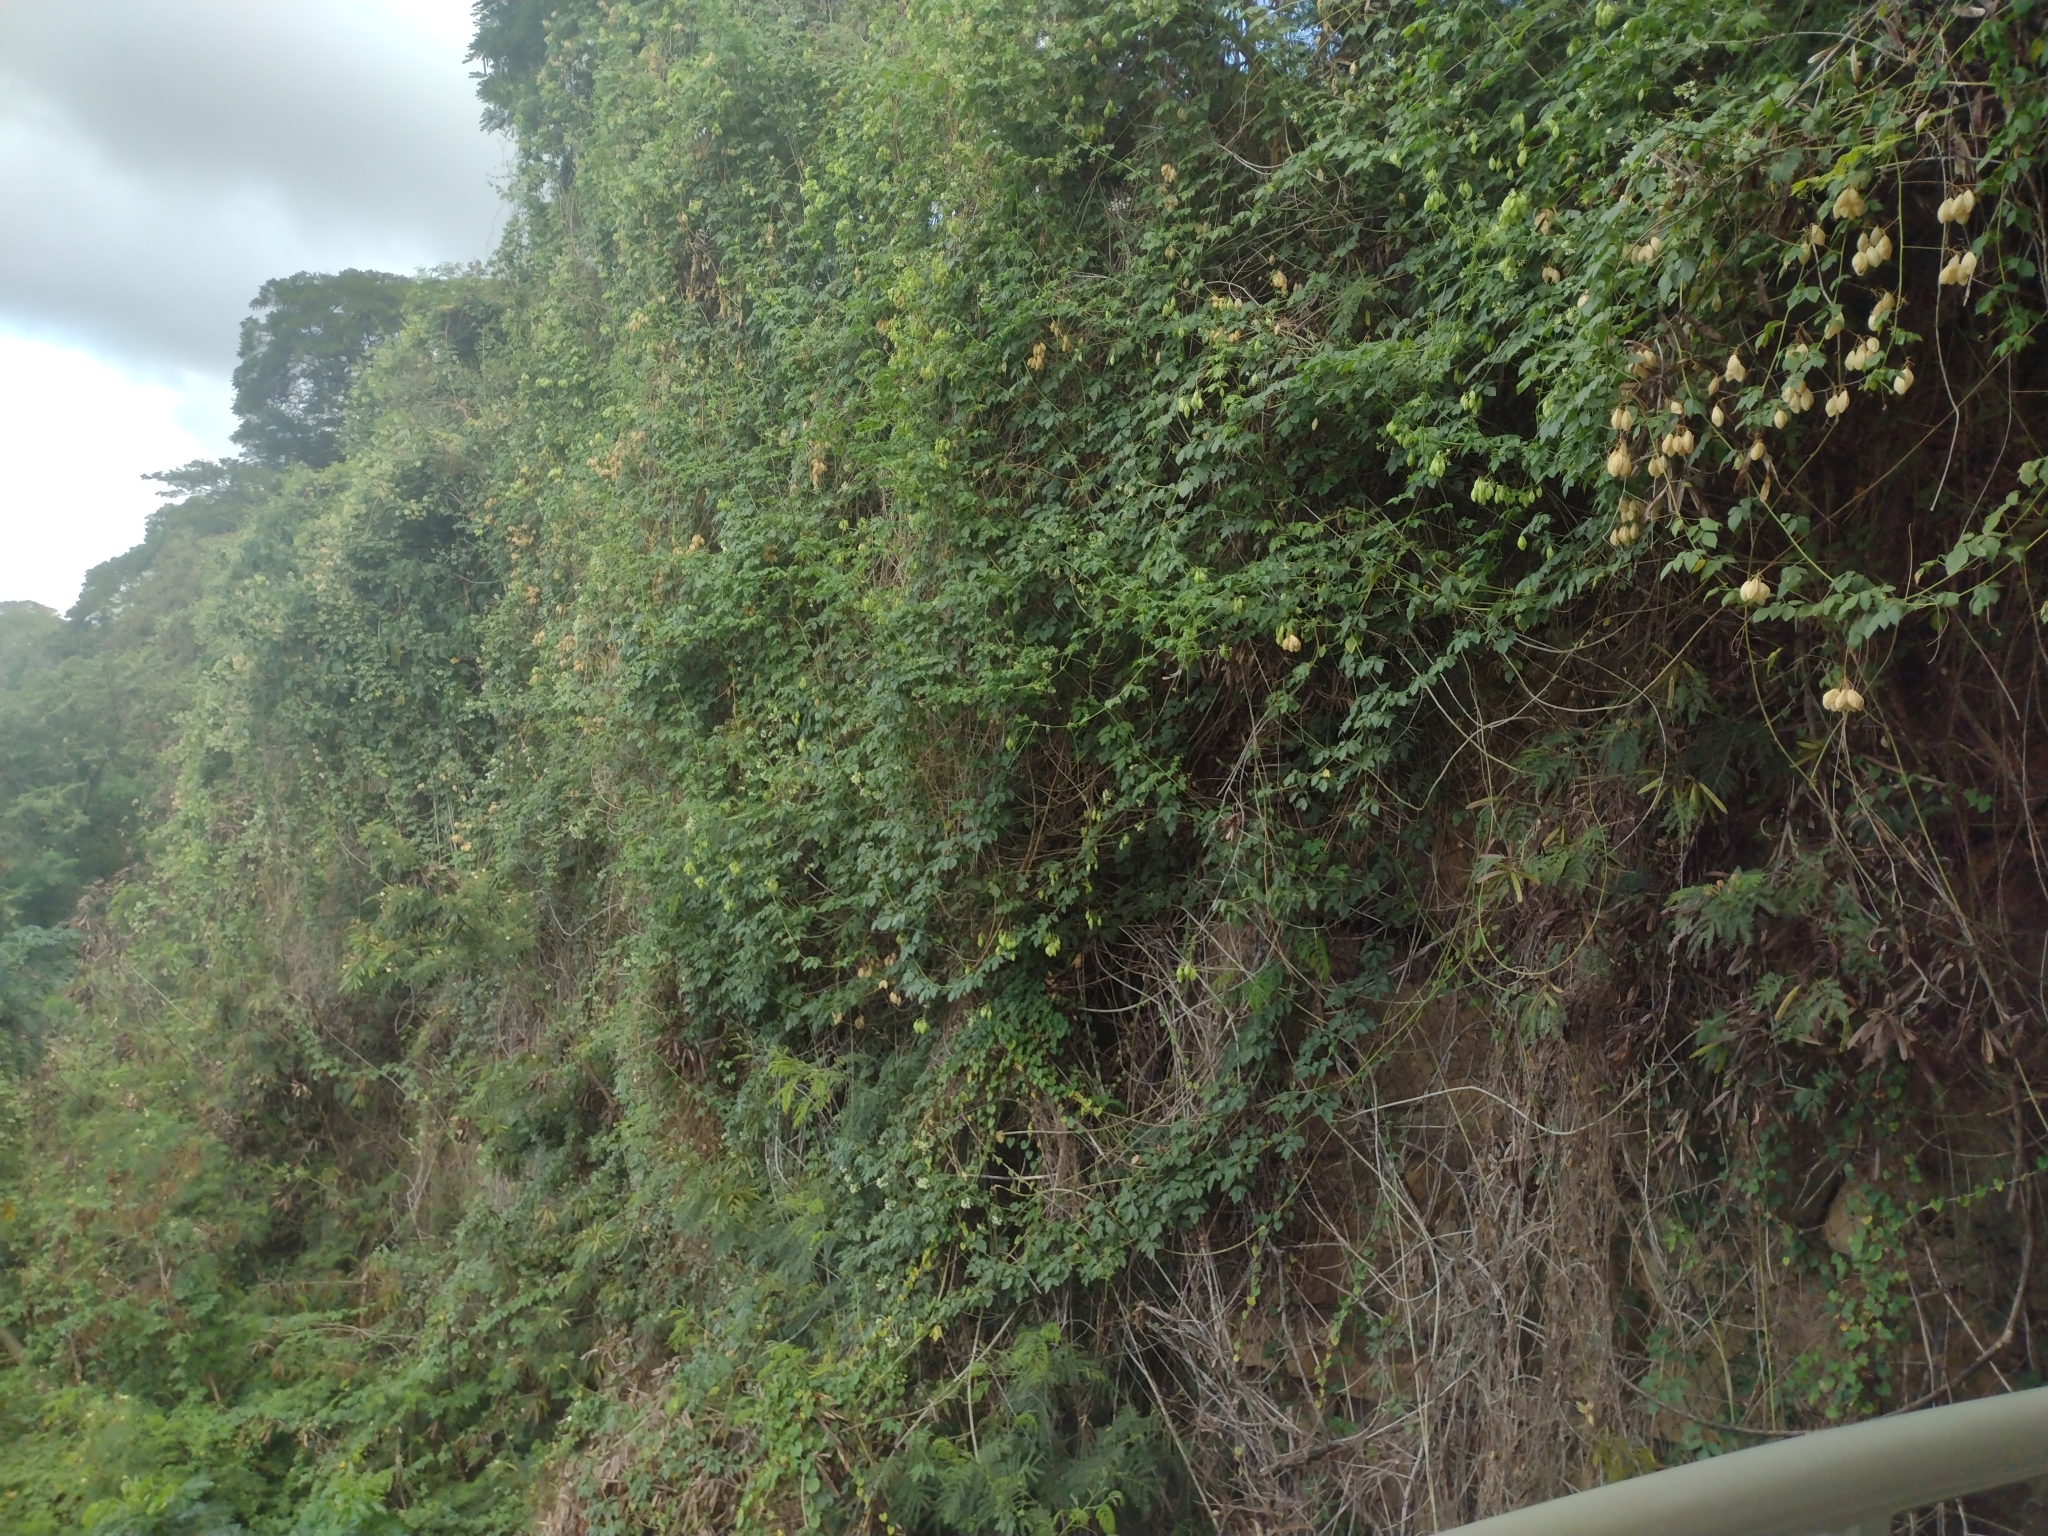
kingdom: Plantae
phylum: Tracheophyta
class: Magnoliopsida
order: Sapindales
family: Sapindaceae
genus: Cardiospermum
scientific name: Cardiospermum grandiflorum
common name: Balloon vine
